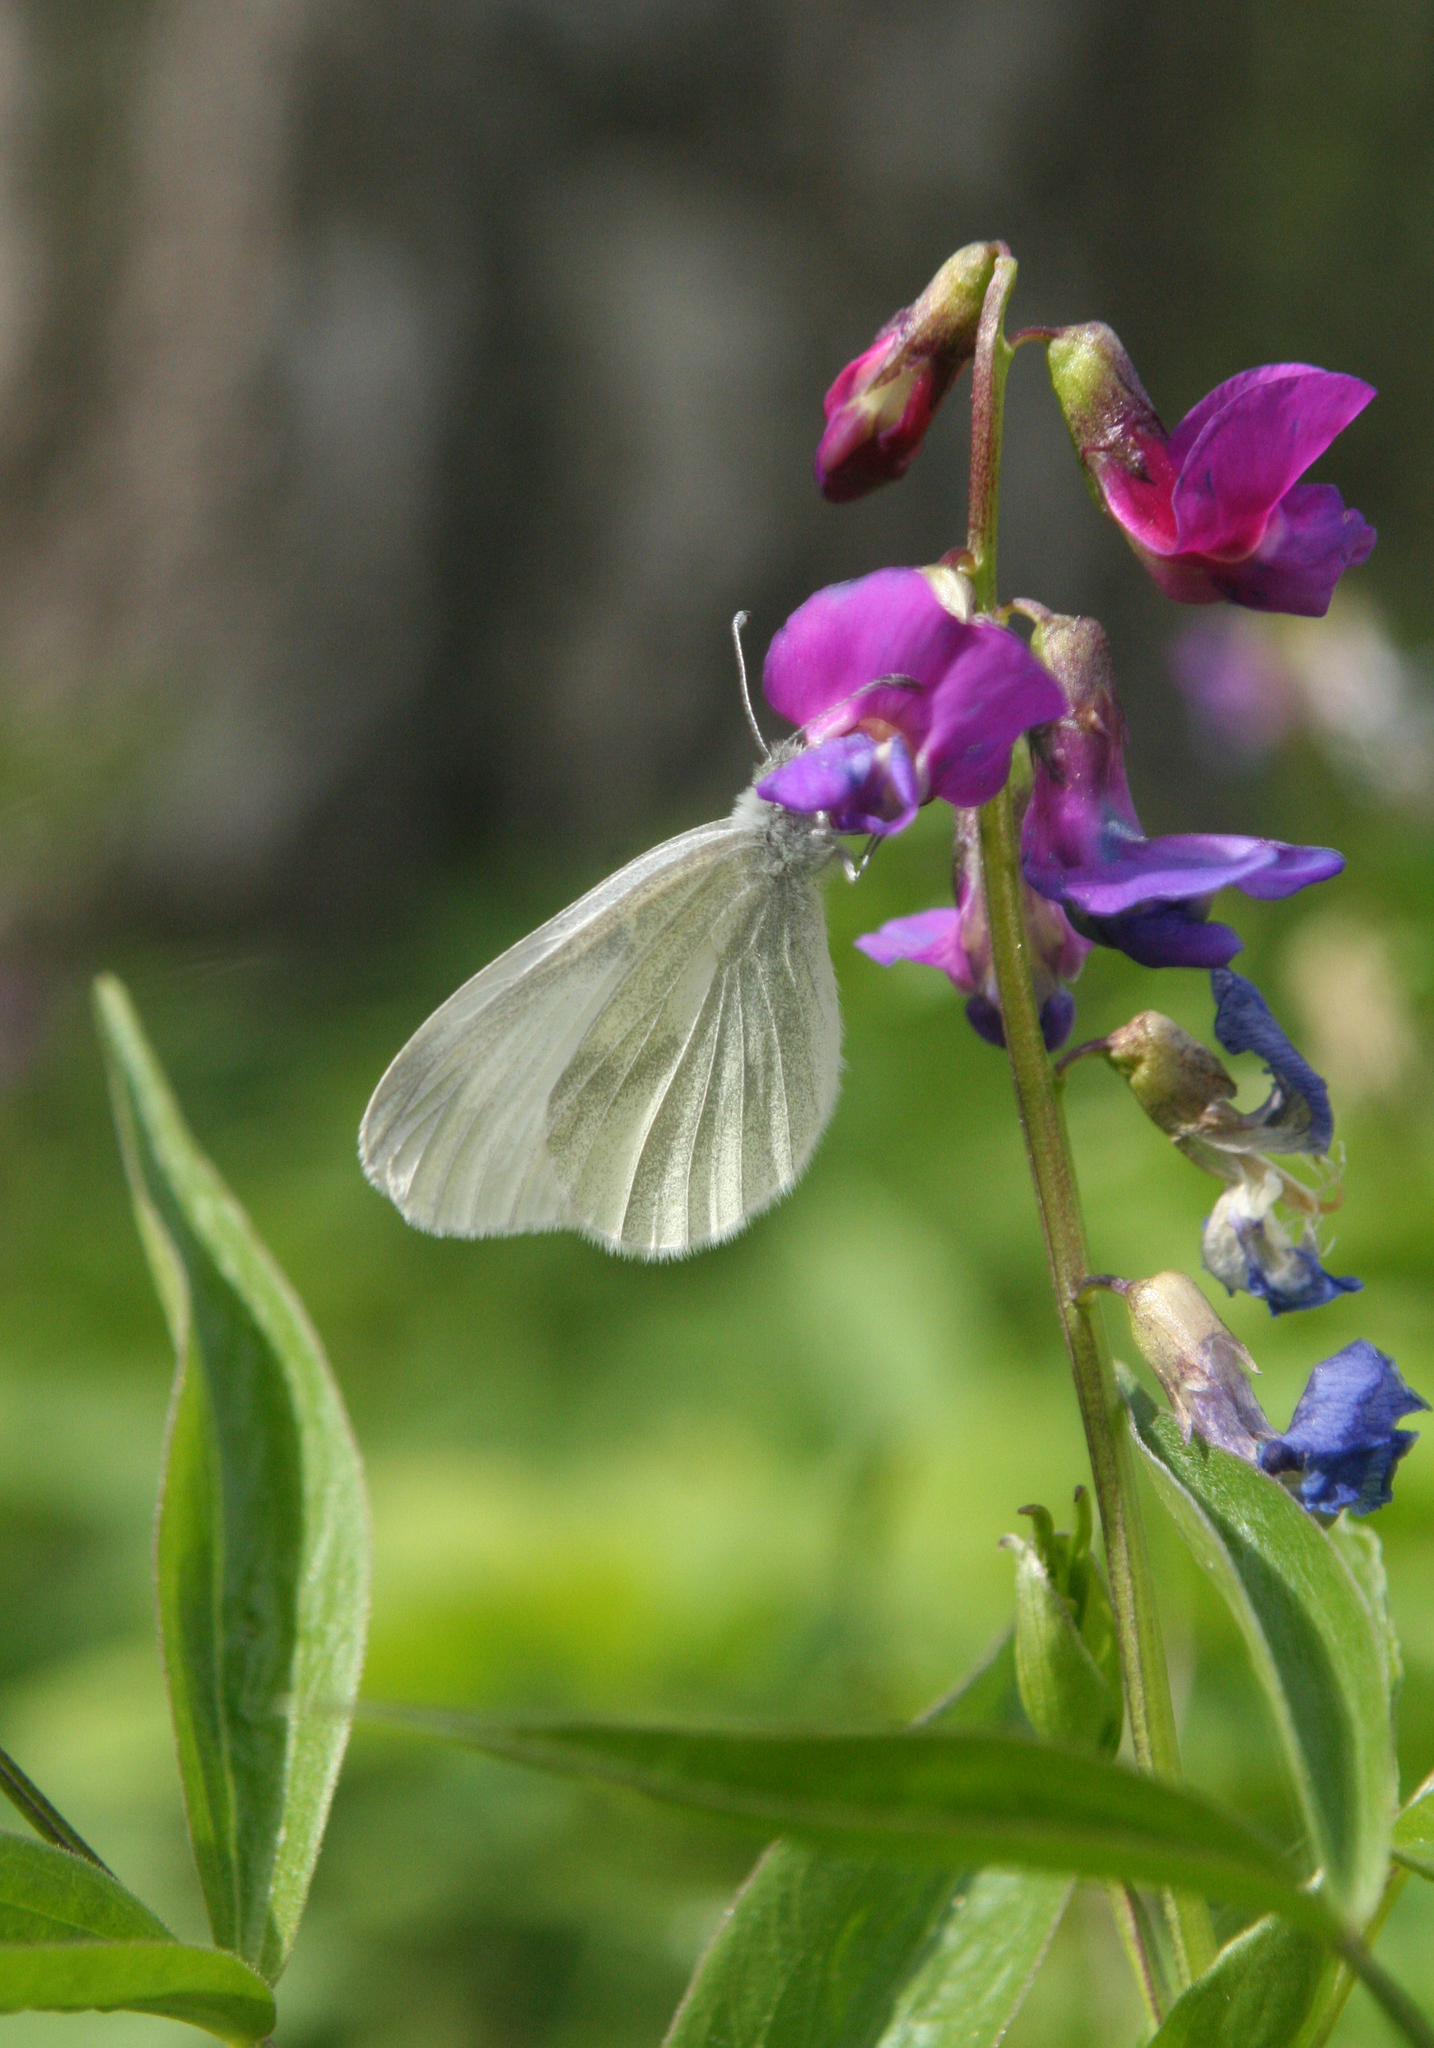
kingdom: Plantae
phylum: Tracheophyta
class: Magnoliopsida
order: Fabales
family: Fabaceae
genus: Lathyrus
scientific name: Lathyrus vernus
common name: Spring pea
